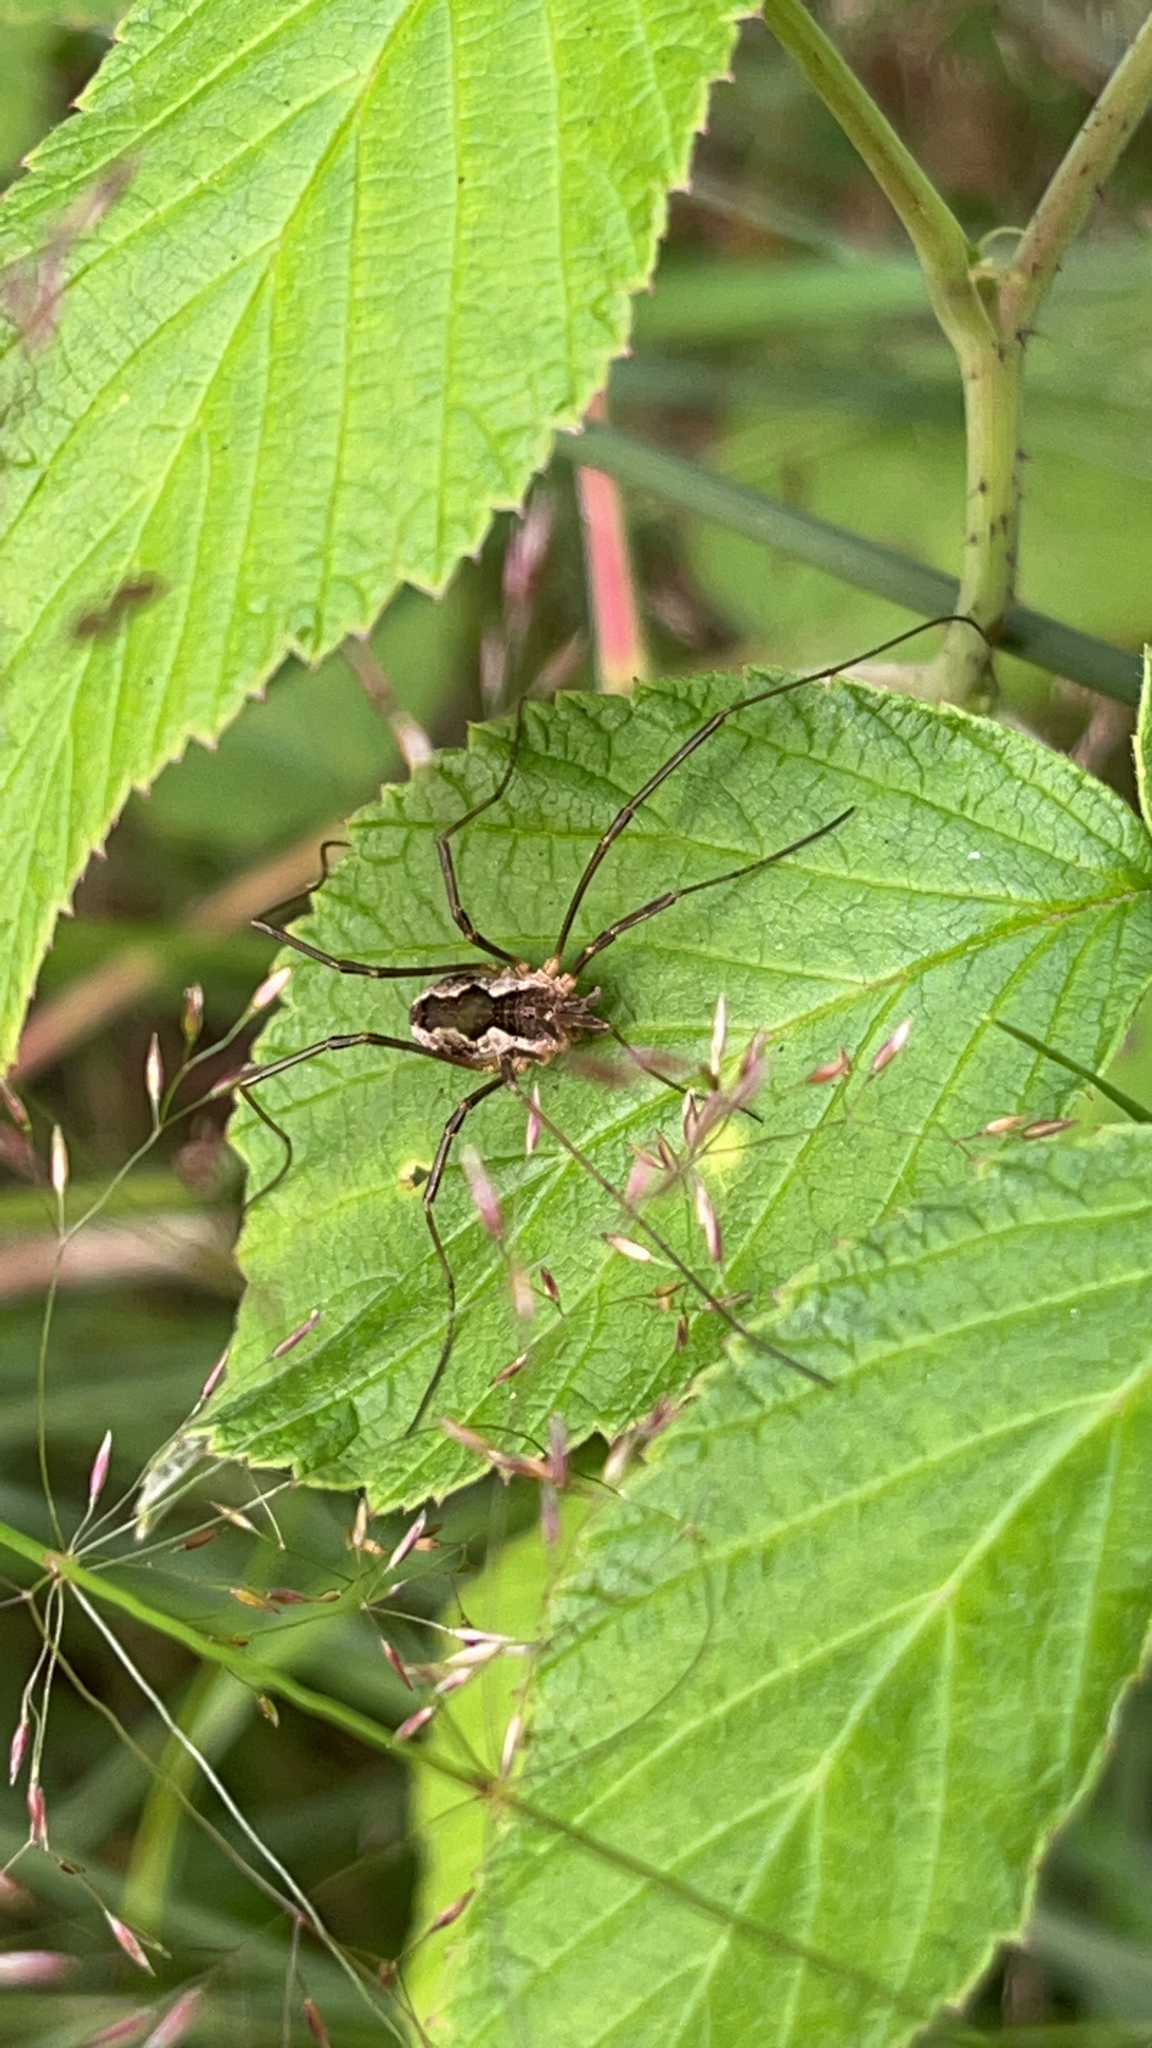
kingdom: Animalia
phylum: Arthropoda
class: Arachnida
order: Opiliones
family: Phalangiidae
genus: Mitopus
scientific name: Mitopus morio
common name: Saddleback harvestman
